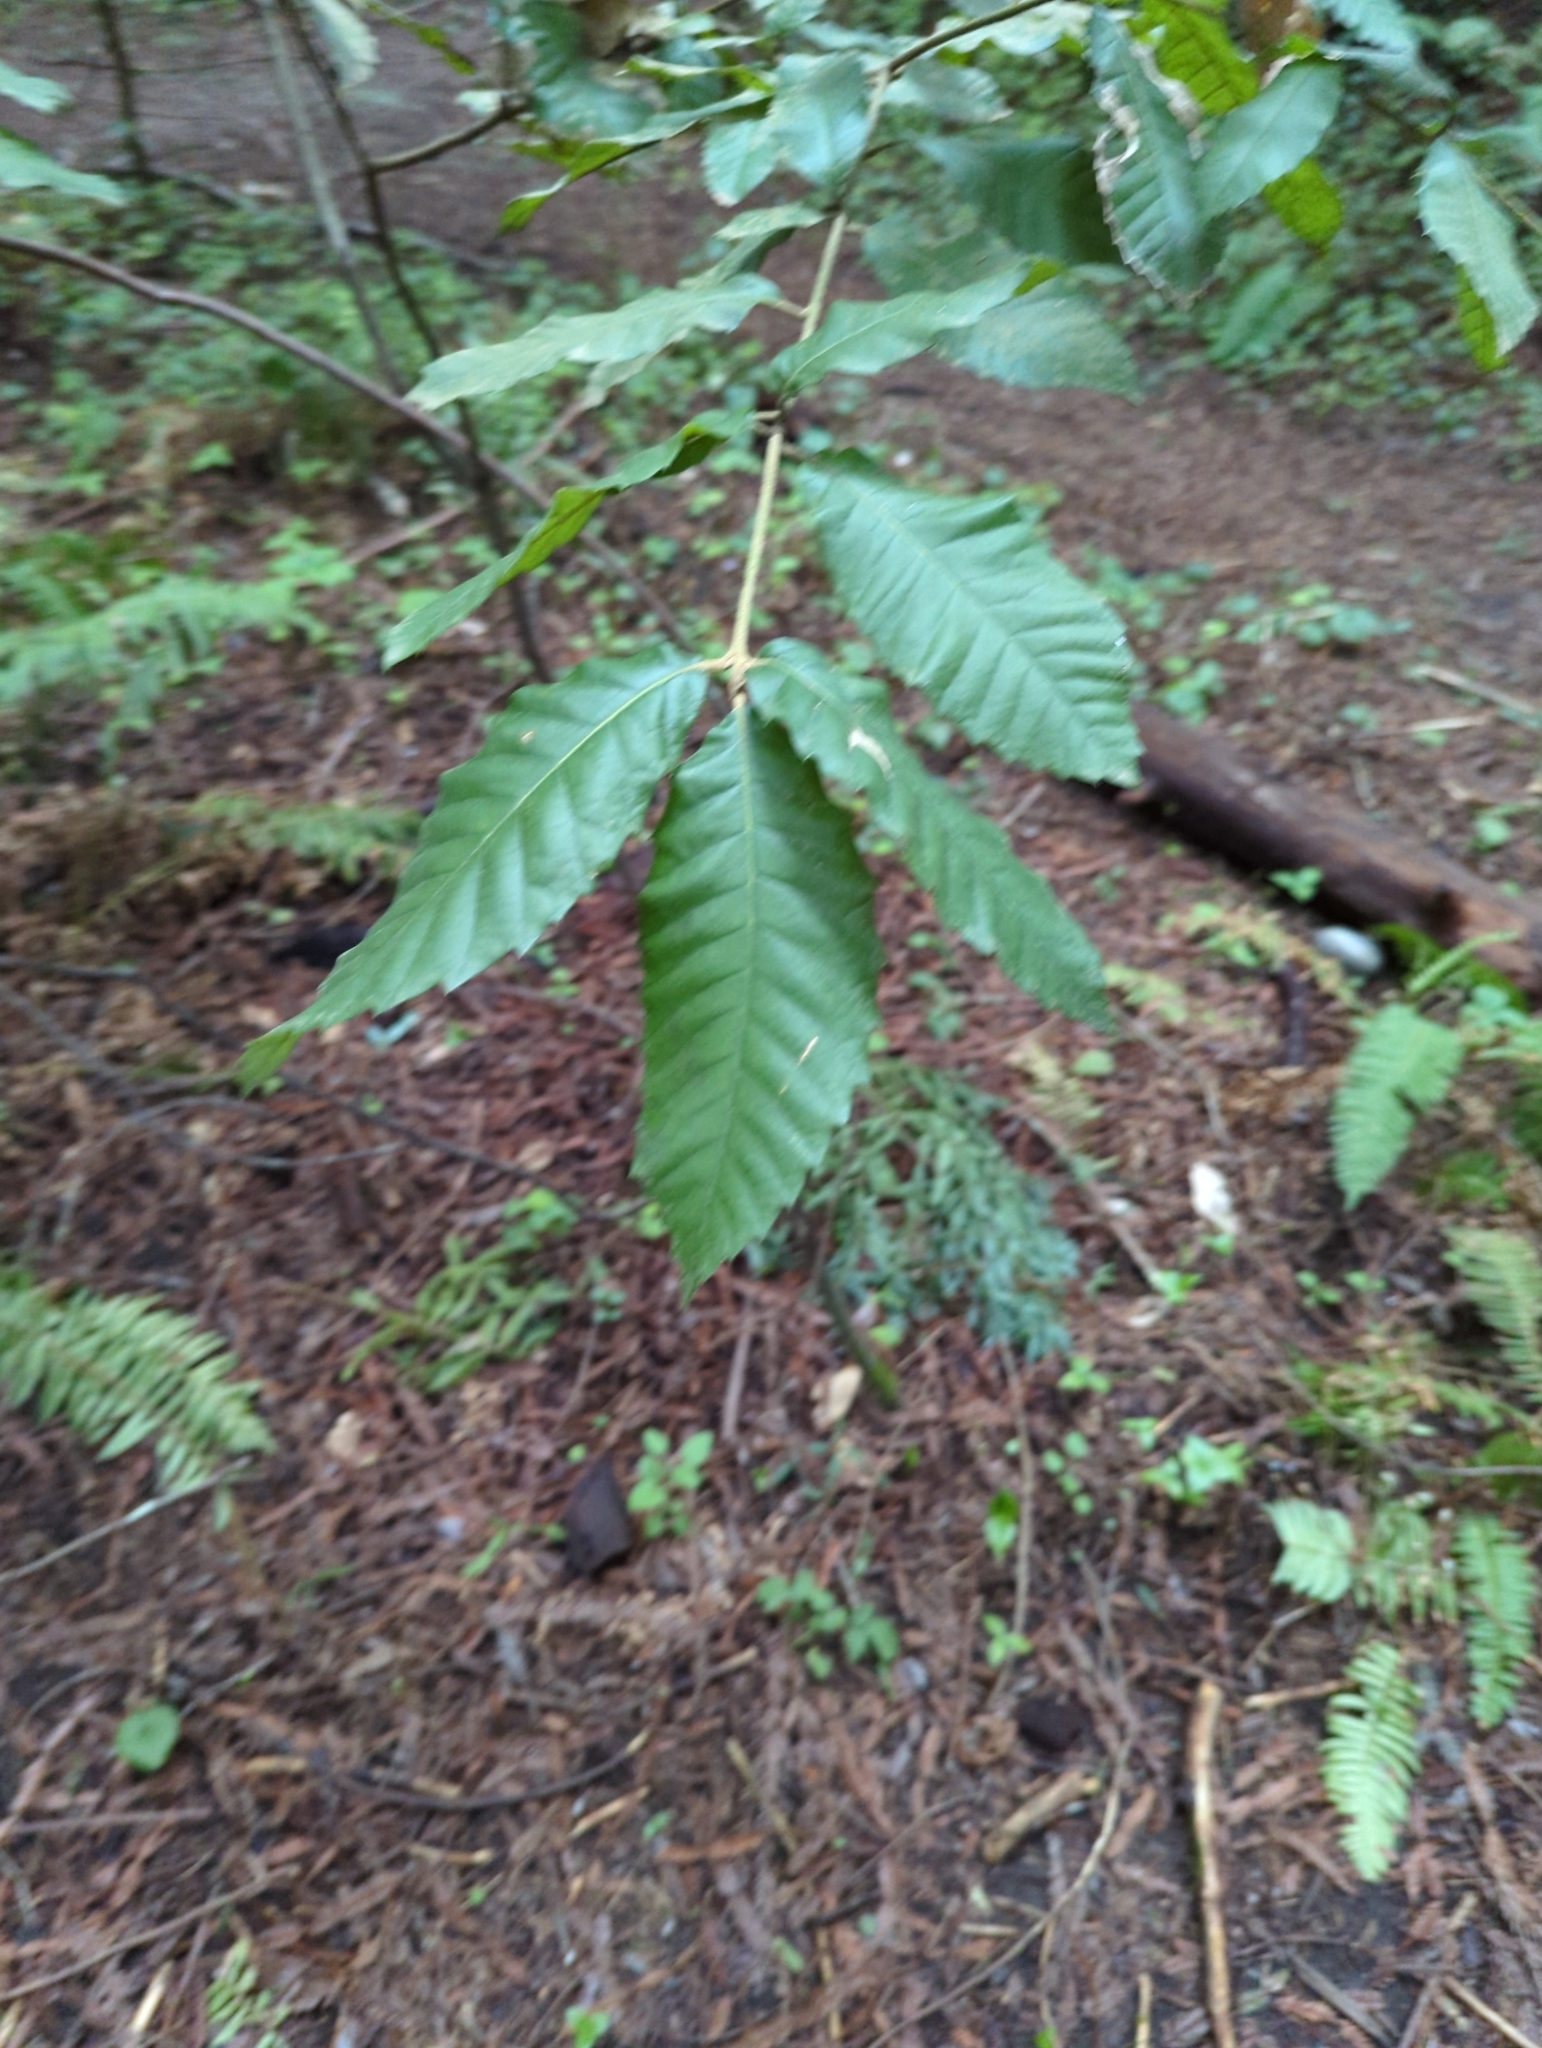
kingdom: Plantae
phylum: Tracheophyta
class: Magnoliopsida
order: Fagales
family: Fagaceae
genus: Notholithocarpus
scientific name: Notholithocarpus densiflorus
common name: Tan bark oak
